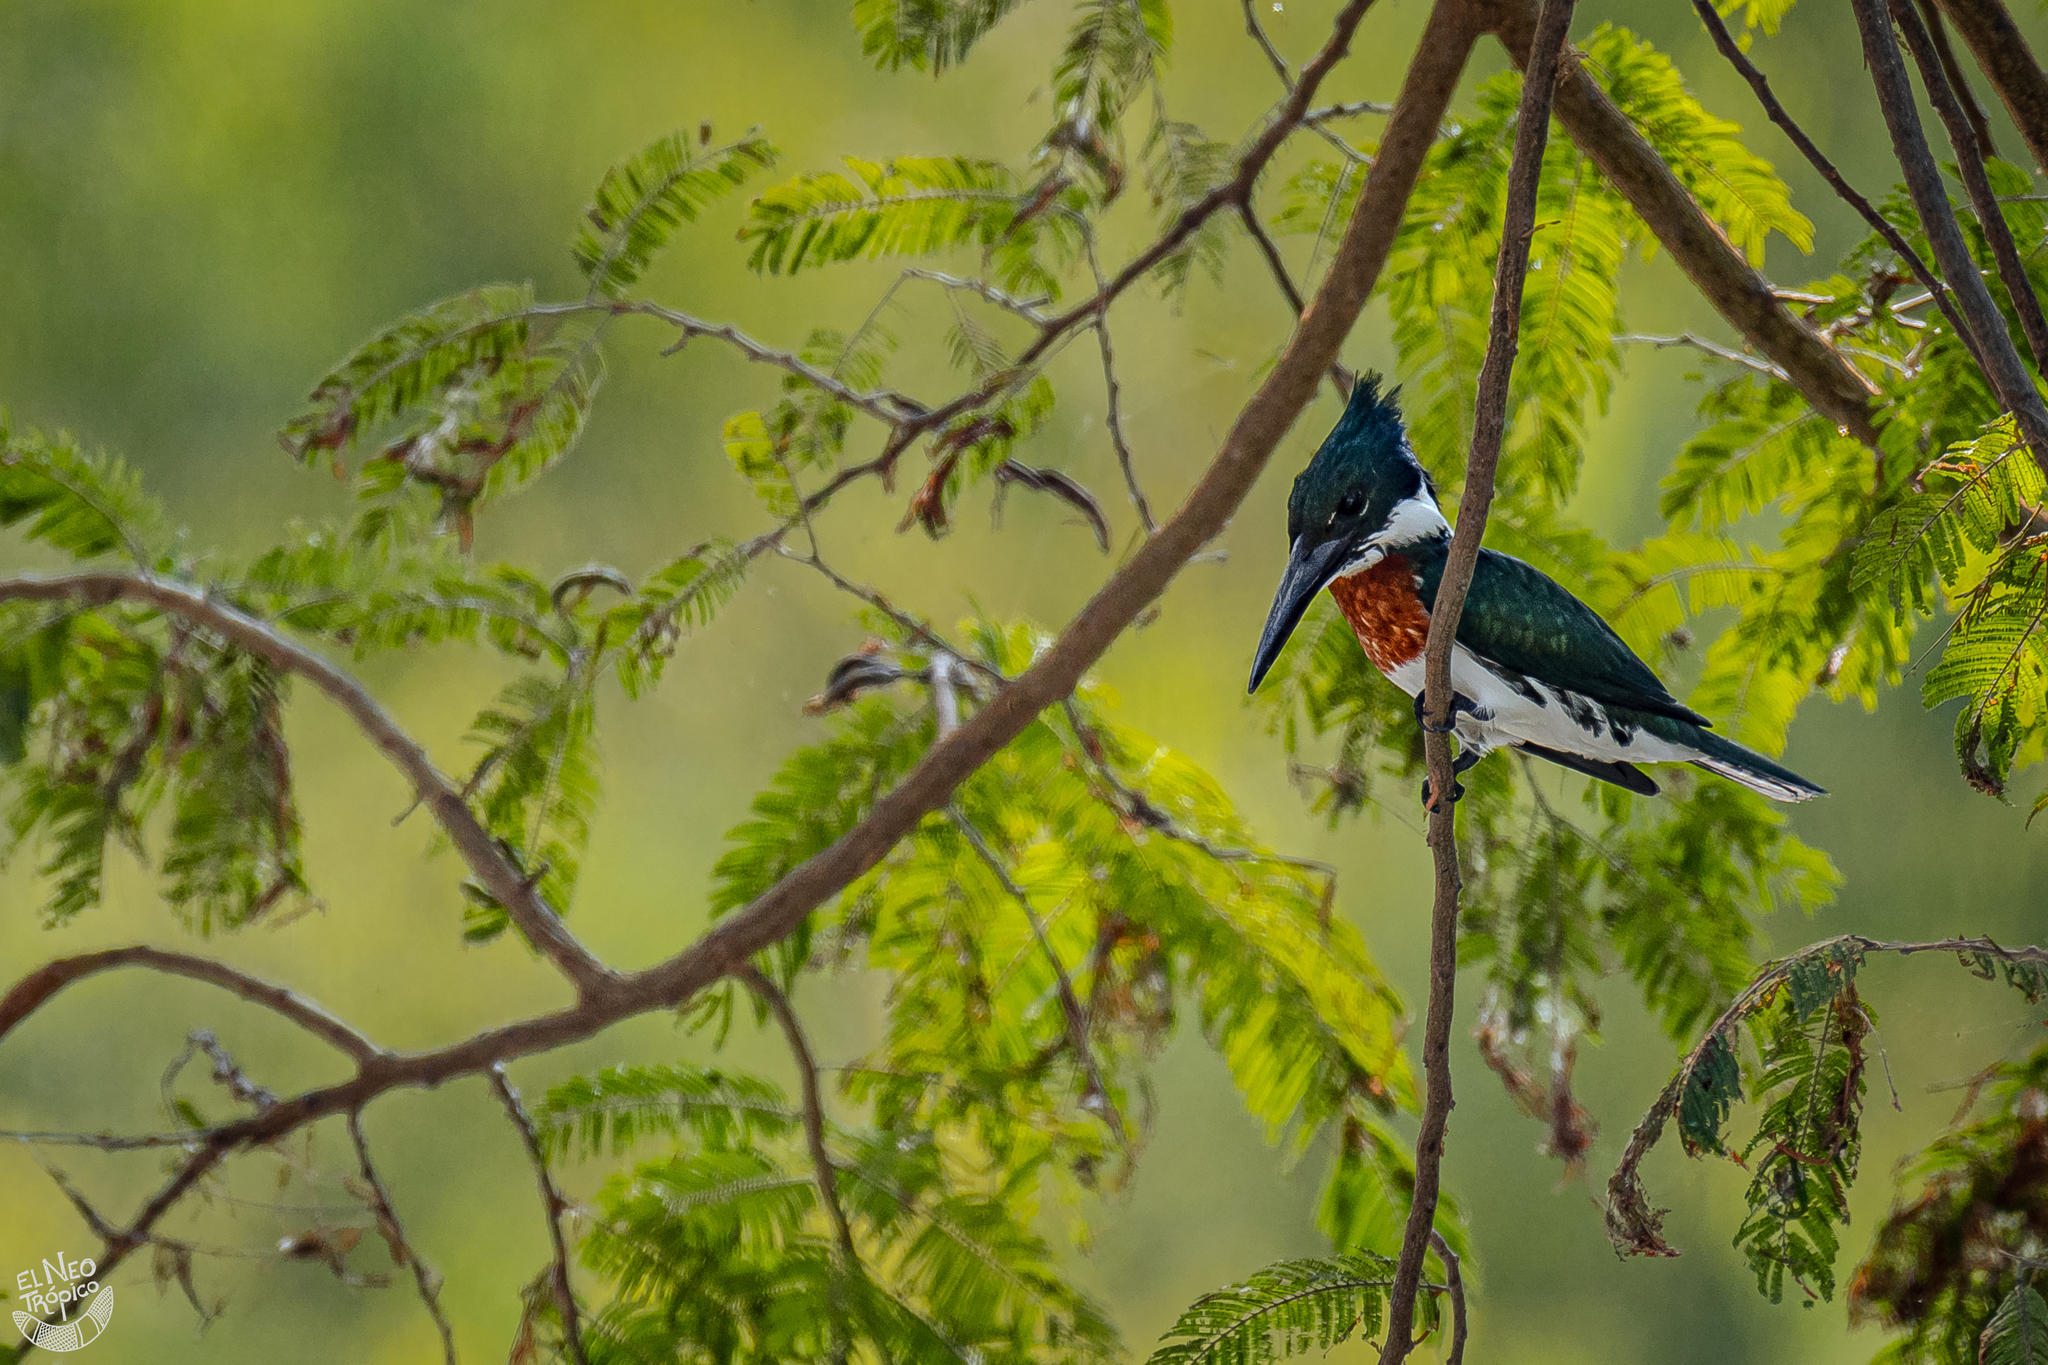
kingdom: Animalia
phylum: Chordata
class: Aves
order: Coraciiformes
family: Alcedinidae
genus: Chloroceryle
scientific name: Chloroceryle amazona
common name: Amazon kingfisher
